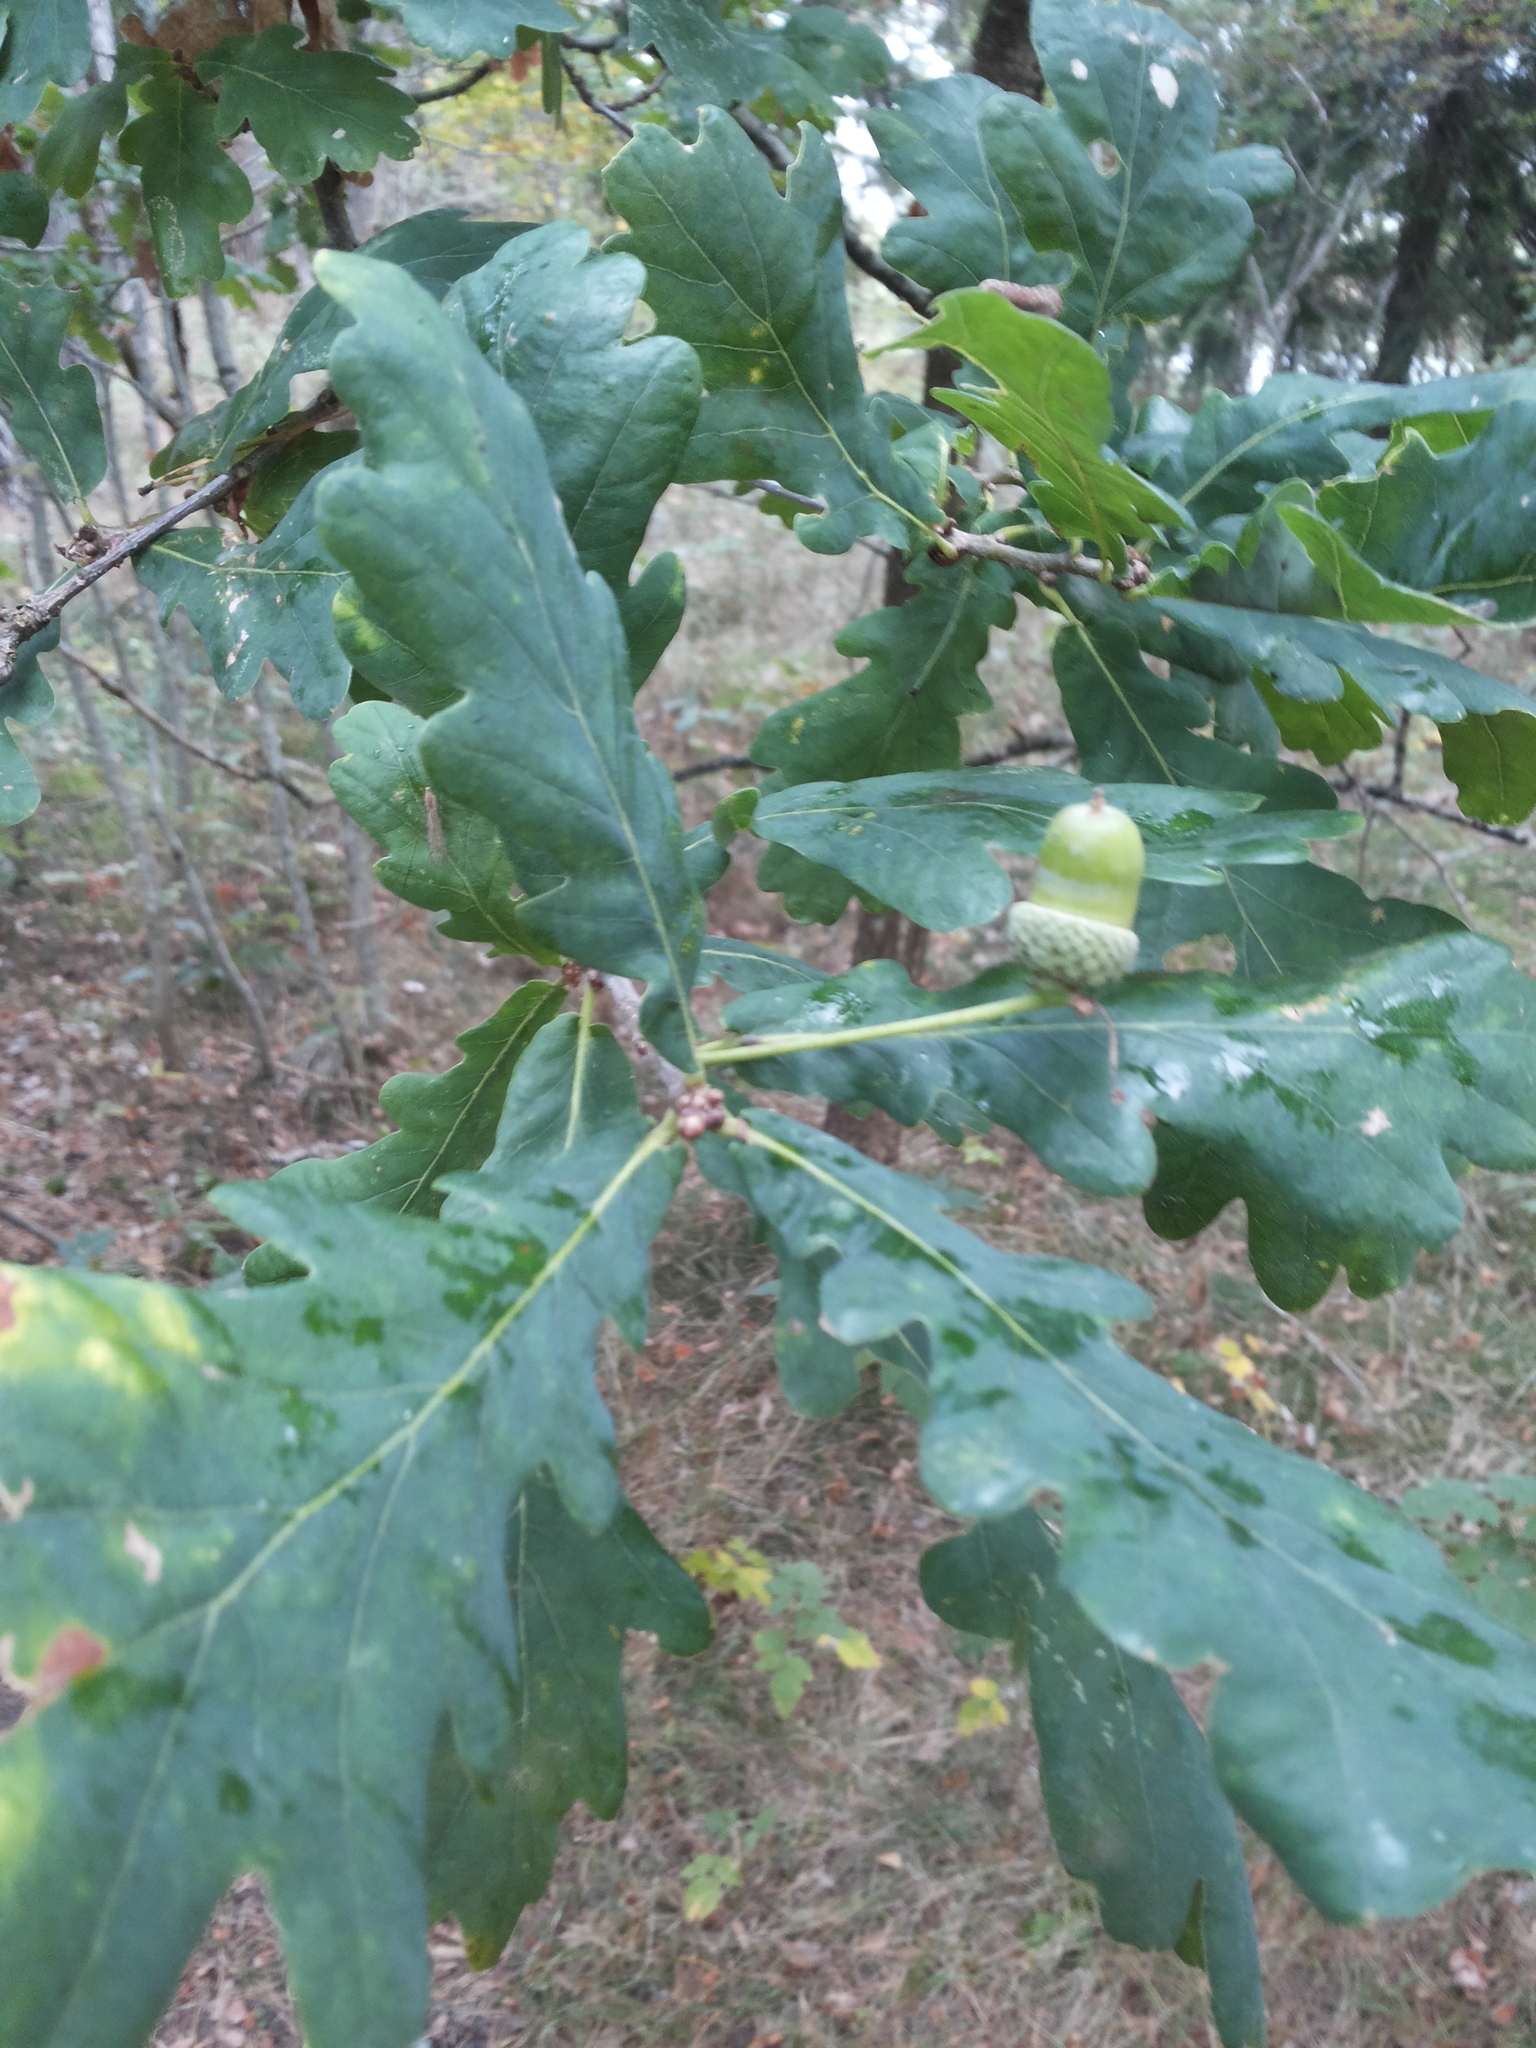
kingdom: Plantae
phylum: Tracheophyta
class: Magnoliopsida
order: Fagales
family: Fagaceae
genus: Quercus
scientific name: Quercus robur
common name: Pedunculate oak
